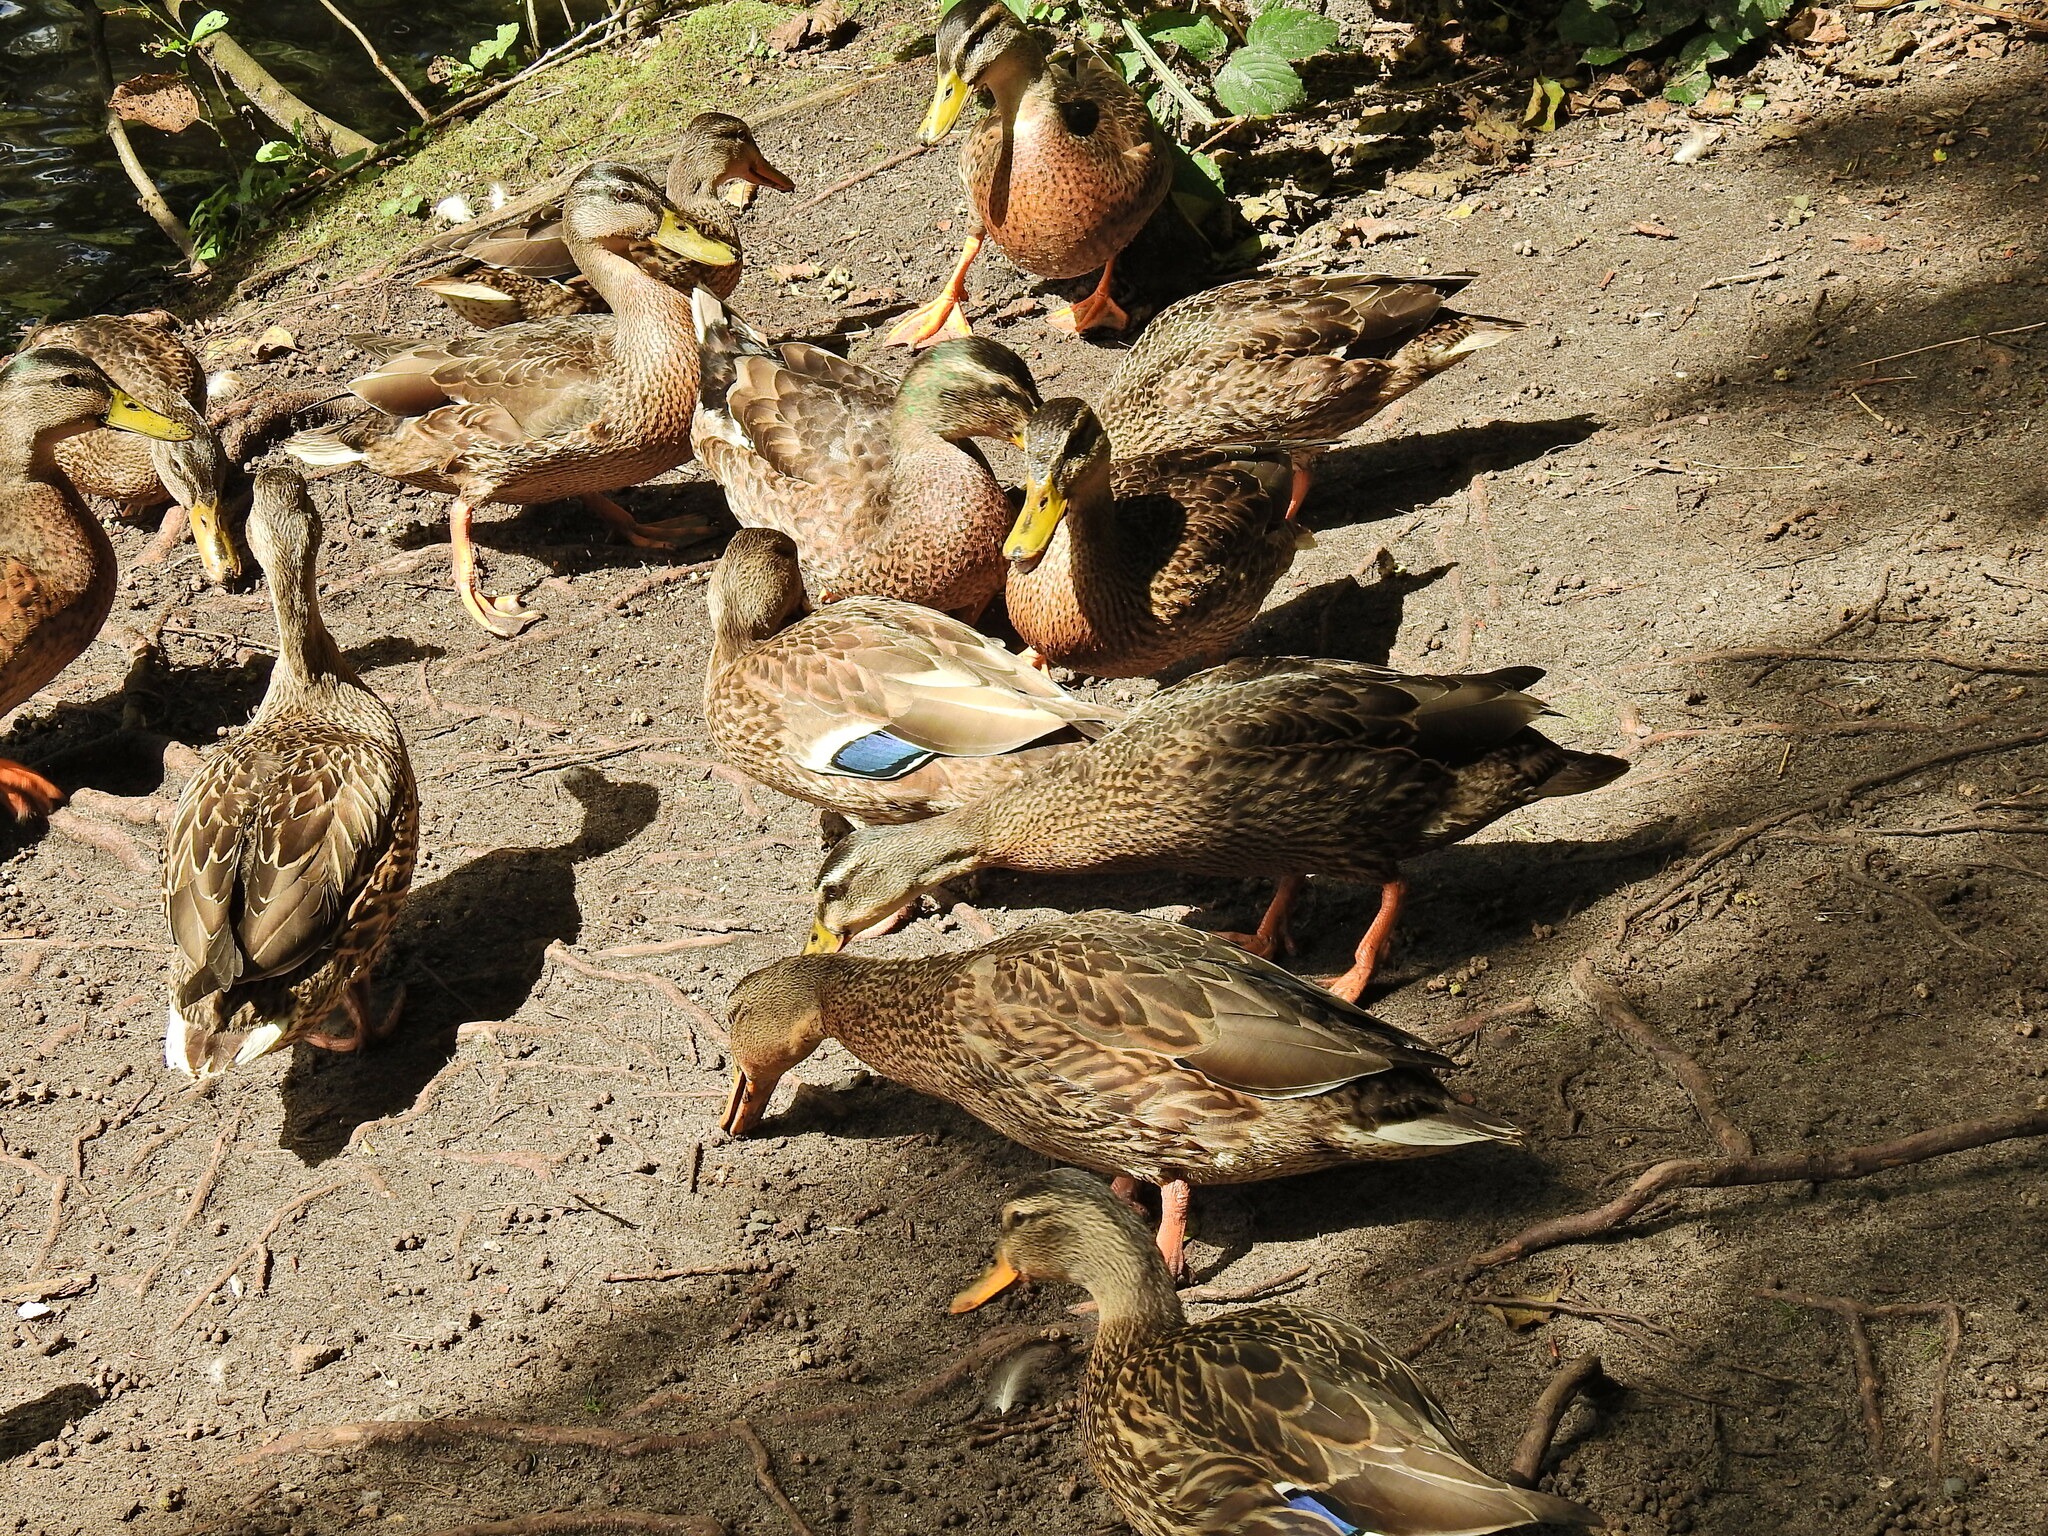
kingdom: Animalia
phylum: Chordata
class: Aves
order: Anseriformes
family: Anatidae
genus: Anas
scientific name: Anas platyrhynchos
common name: Mallard
